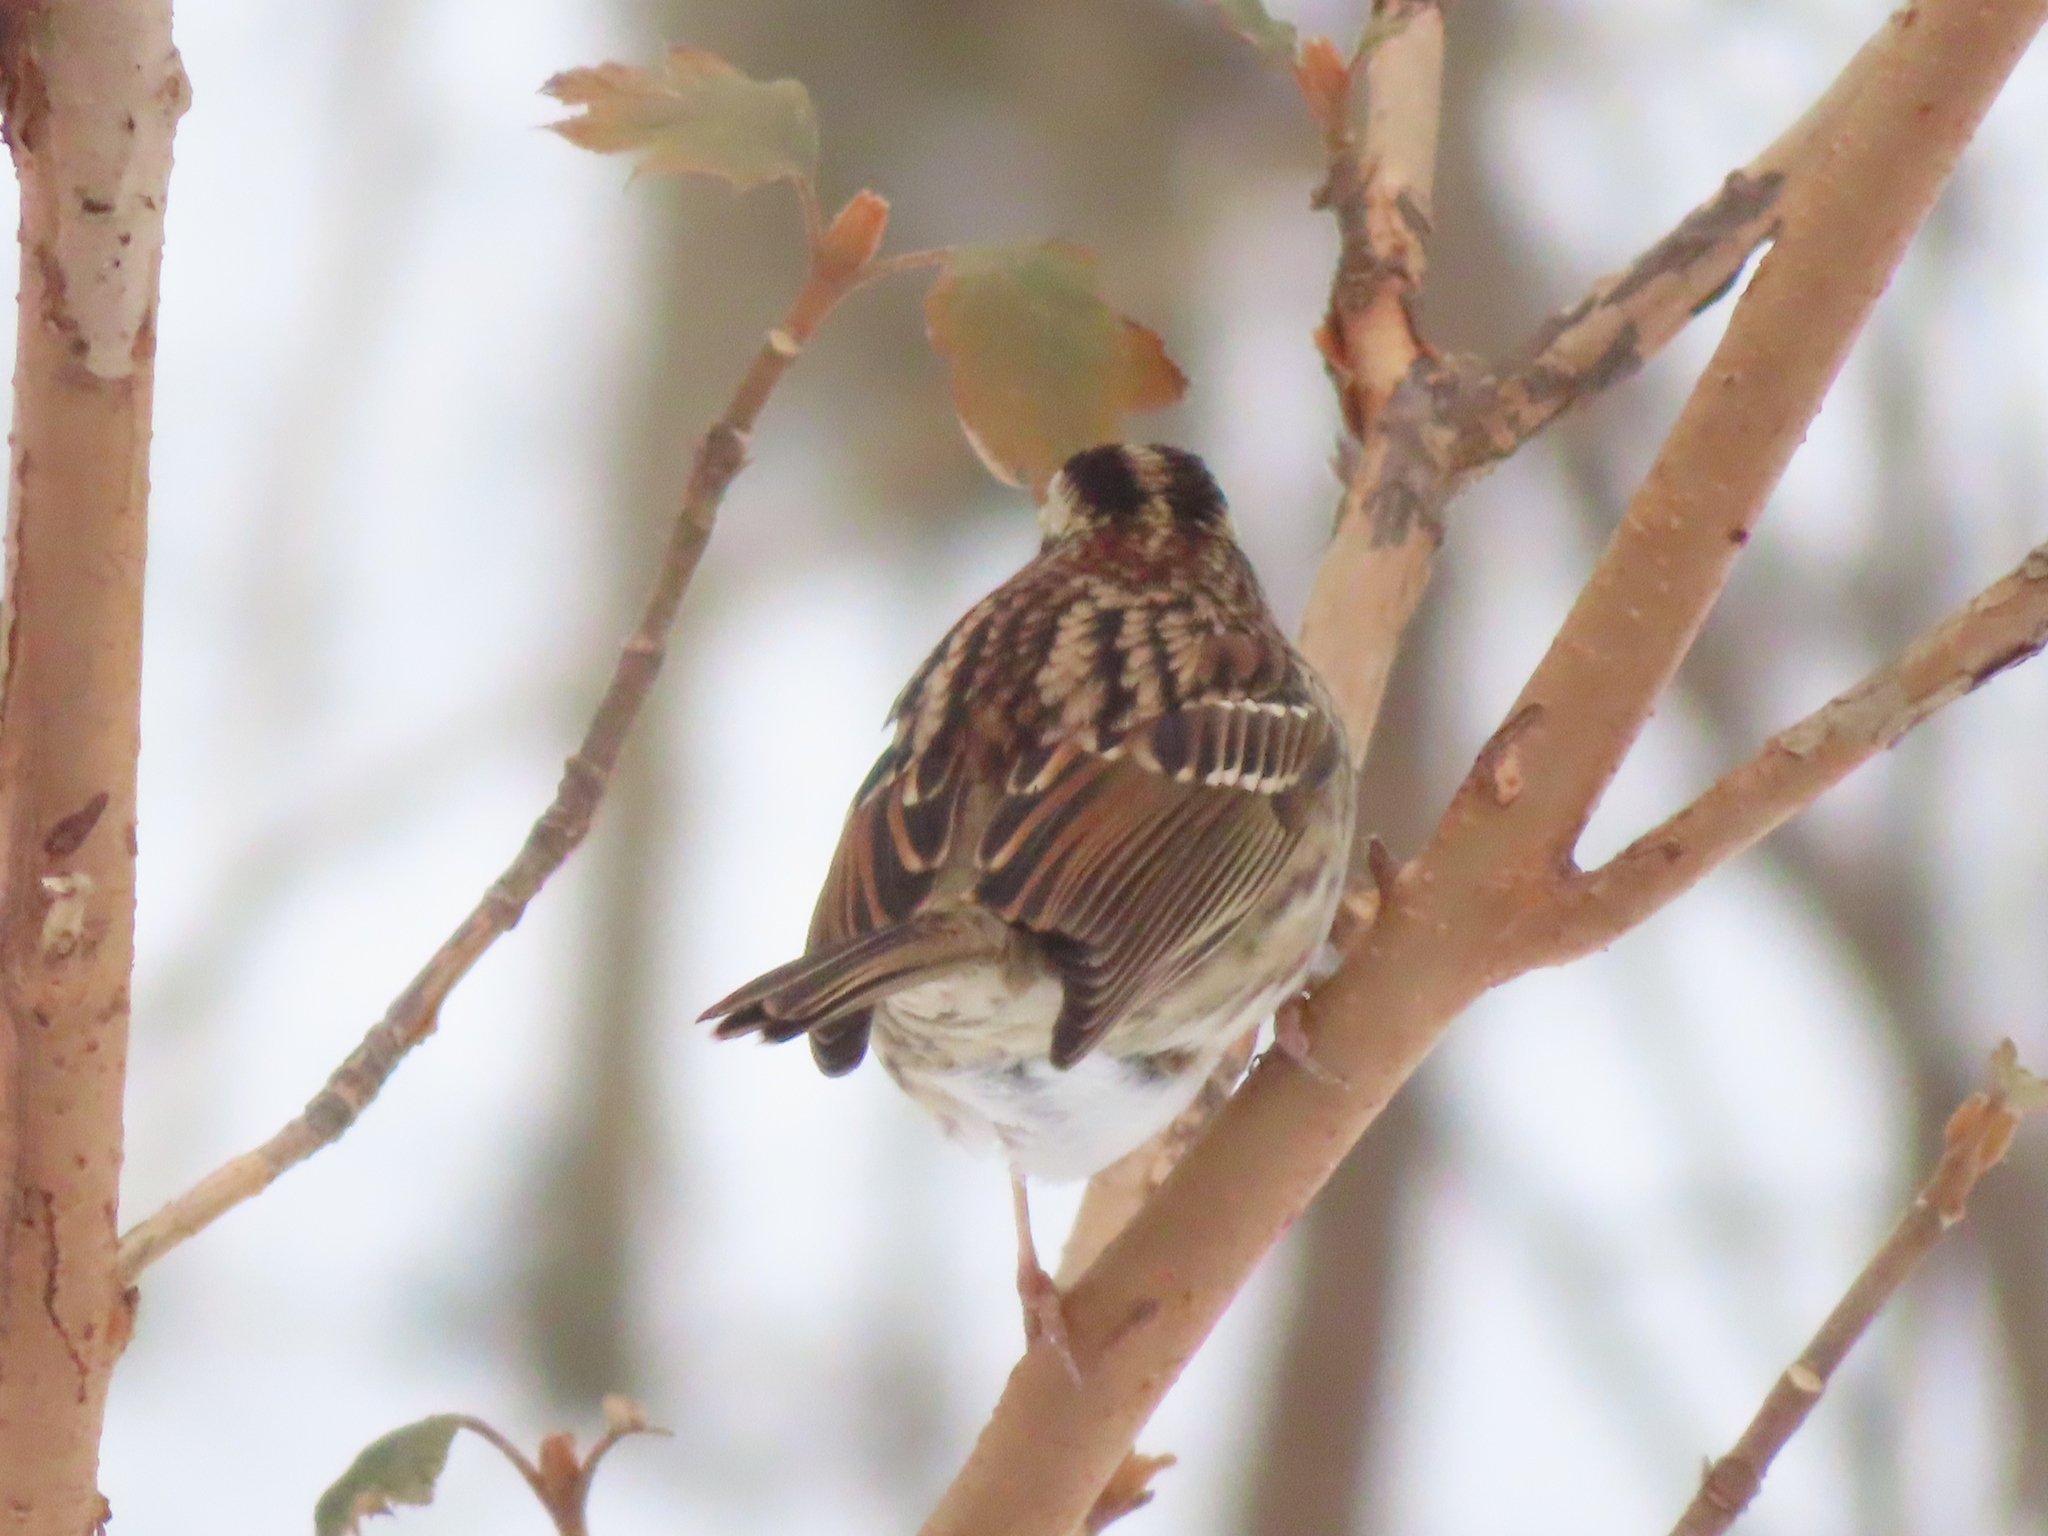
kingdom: Animalia
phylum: Chordata
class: Aves
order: Passeriformes
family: Passerellidae
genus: Zonotrichia
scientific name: Zonotrichia albicollis
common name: White-throated sparrow
